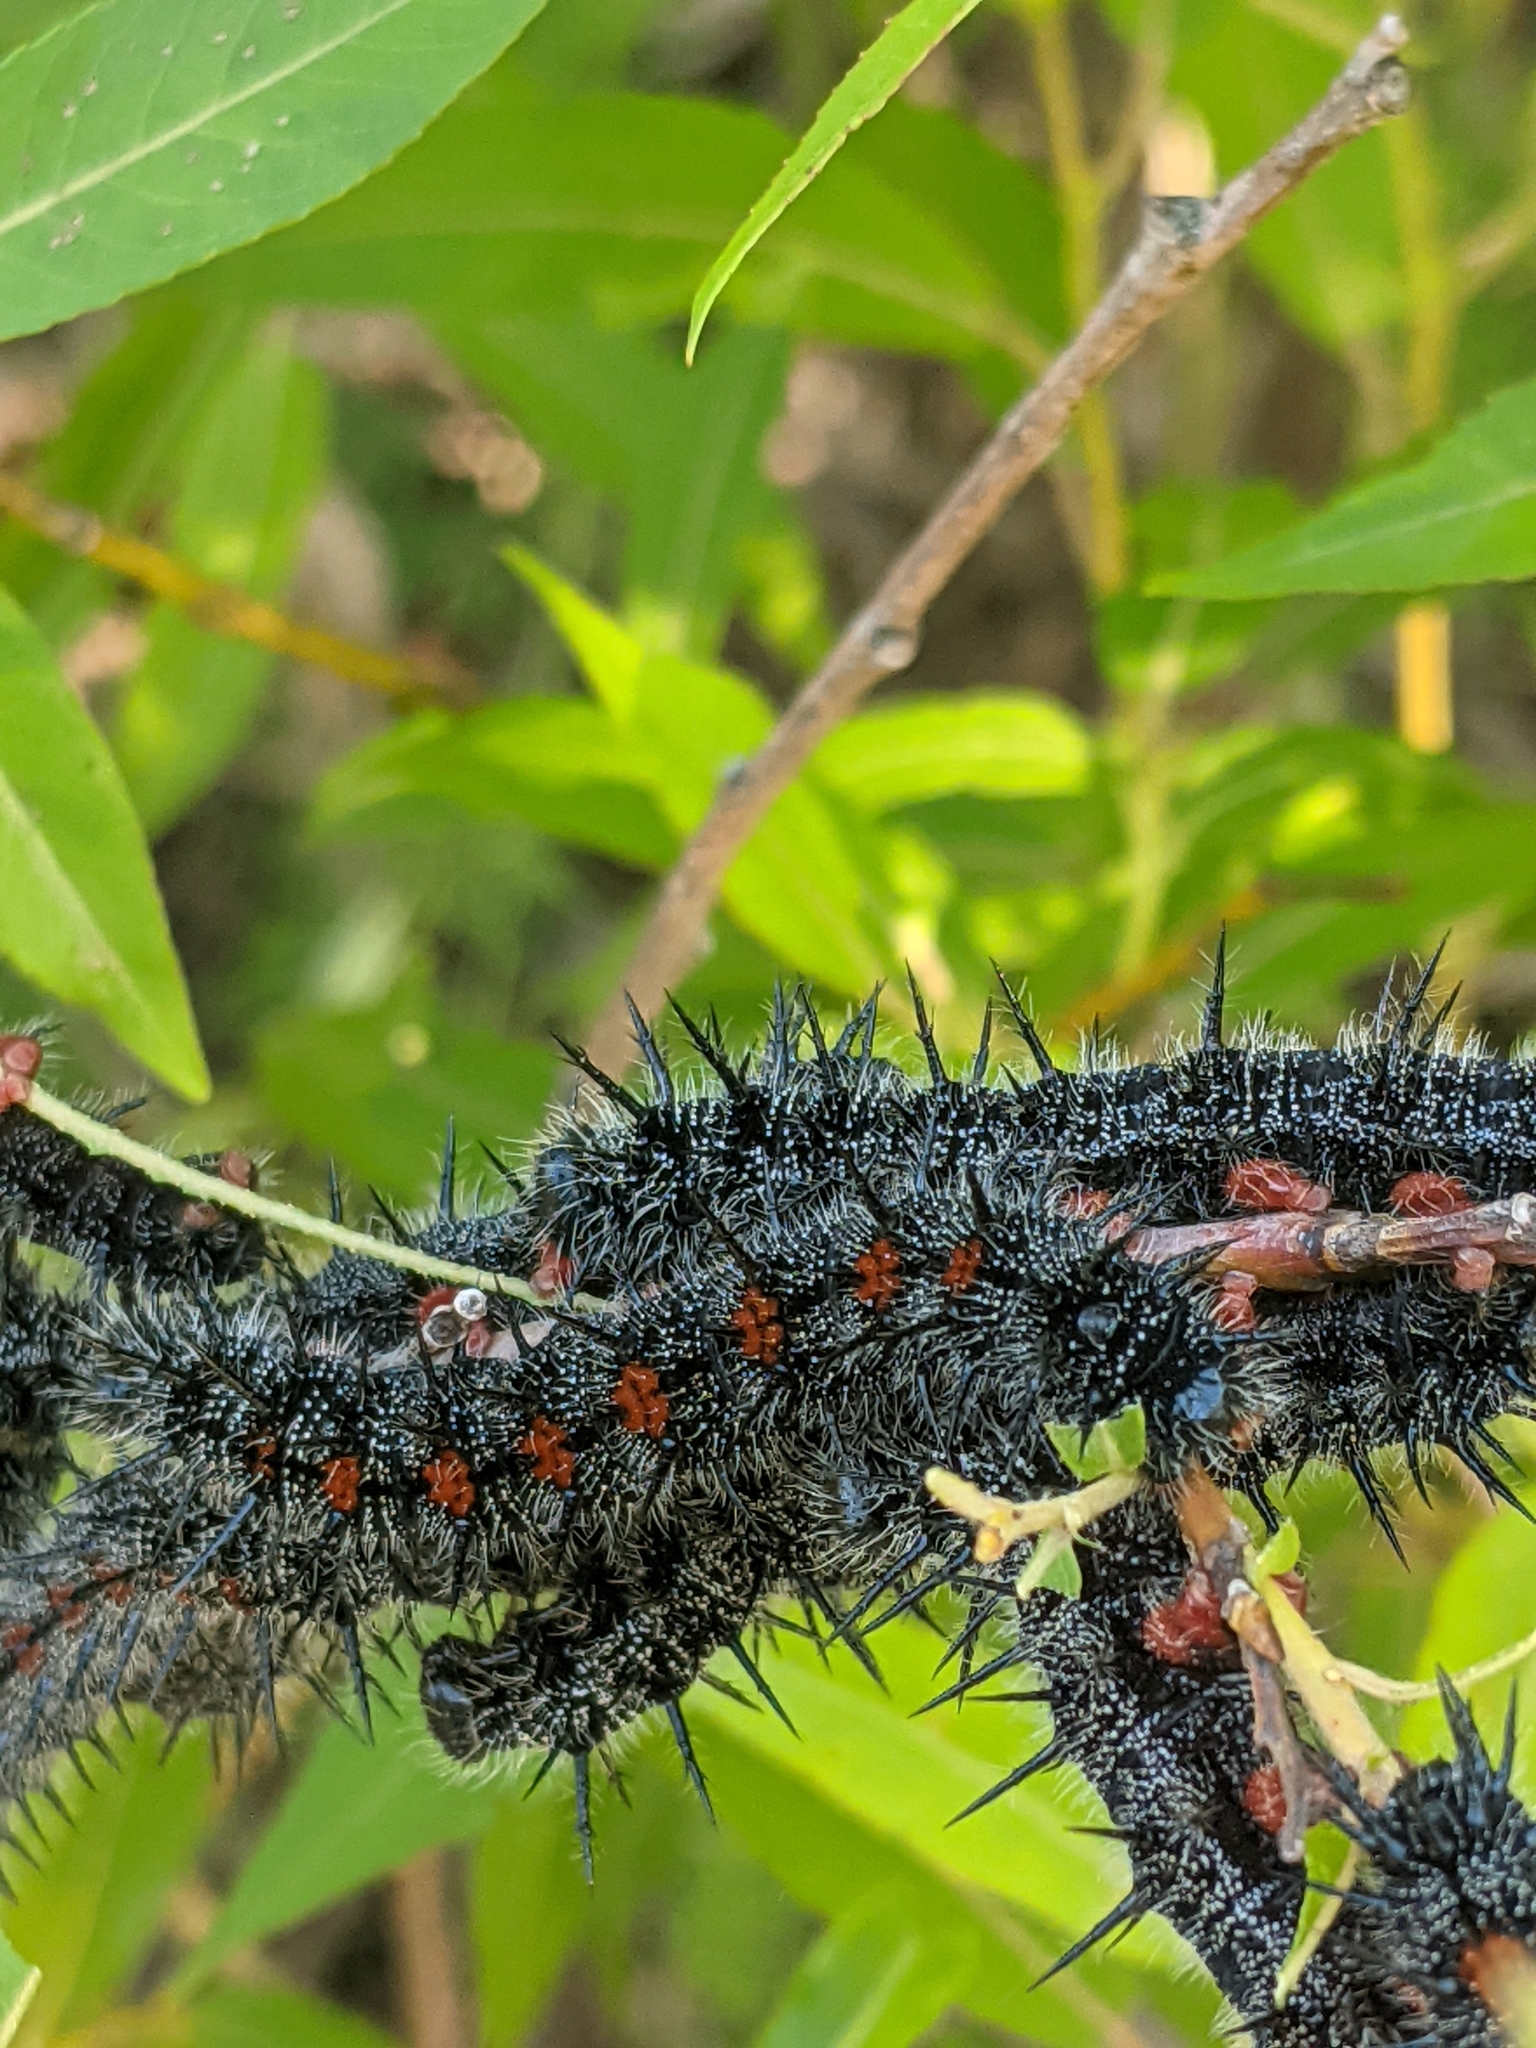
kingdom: Animalia
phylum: Arthropoda
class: Insecta
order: Lepidoptera
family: Nymphalidae
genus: Nymphalis
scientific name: Nymphalis antiopa
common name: Camberwell beauty
